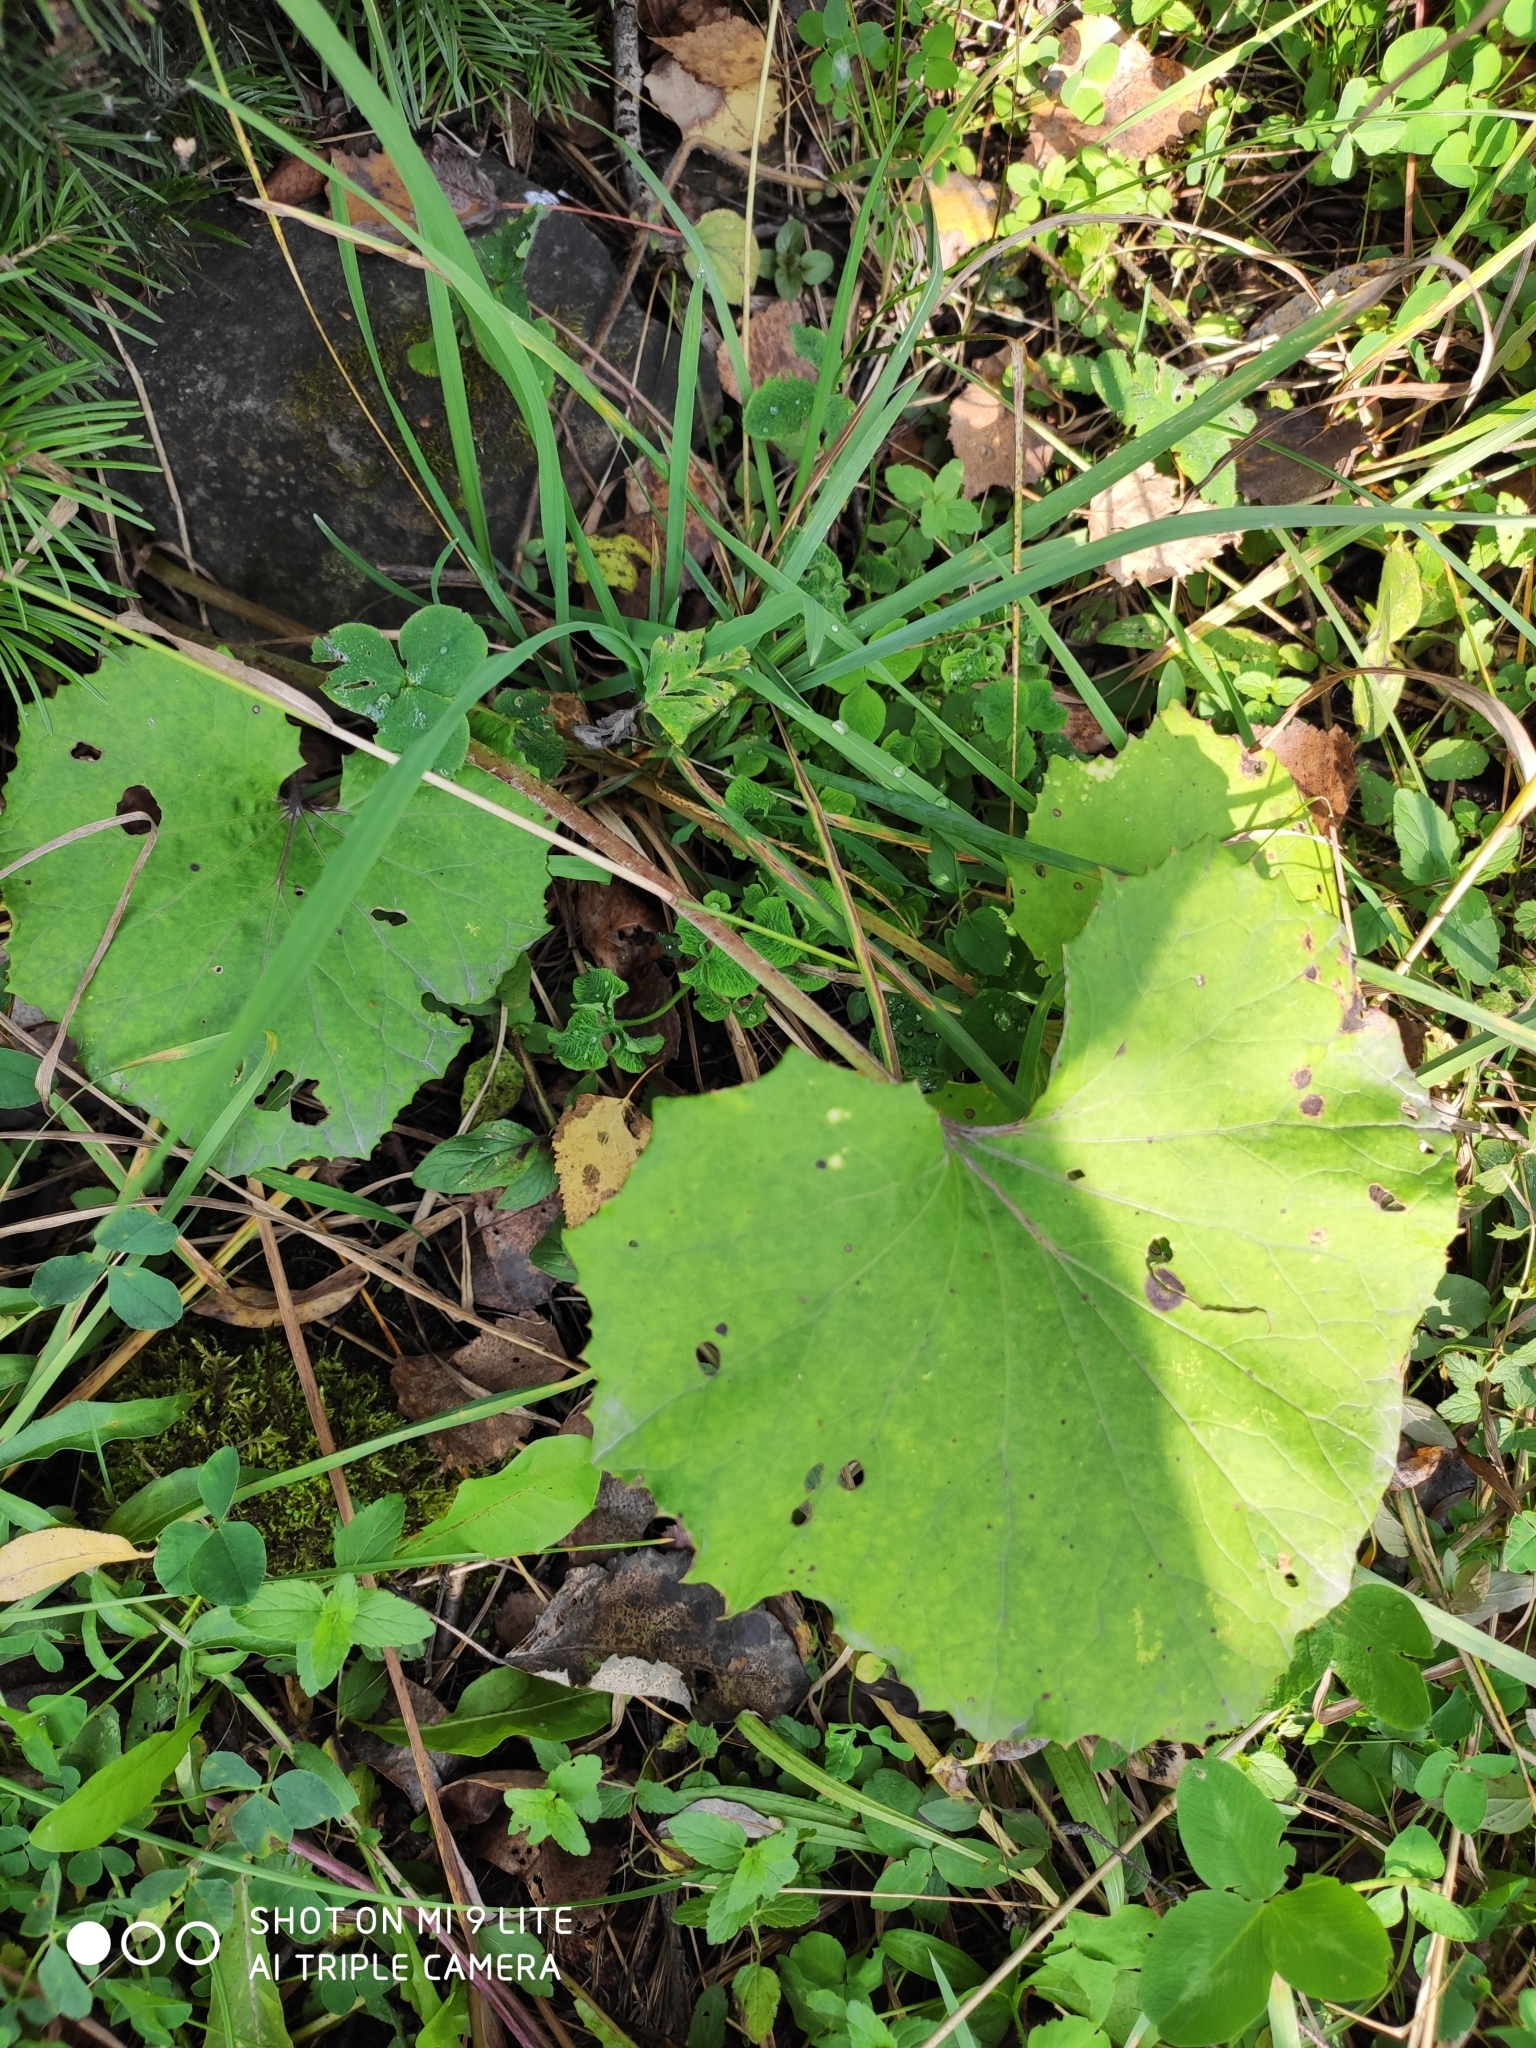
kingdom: Plantae
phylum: Tracheophyta
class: Magnoliopsida
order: Asterales
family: Asteraceae
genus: Tussilago
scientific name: Tussilago farfara
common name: Coltsfoot
